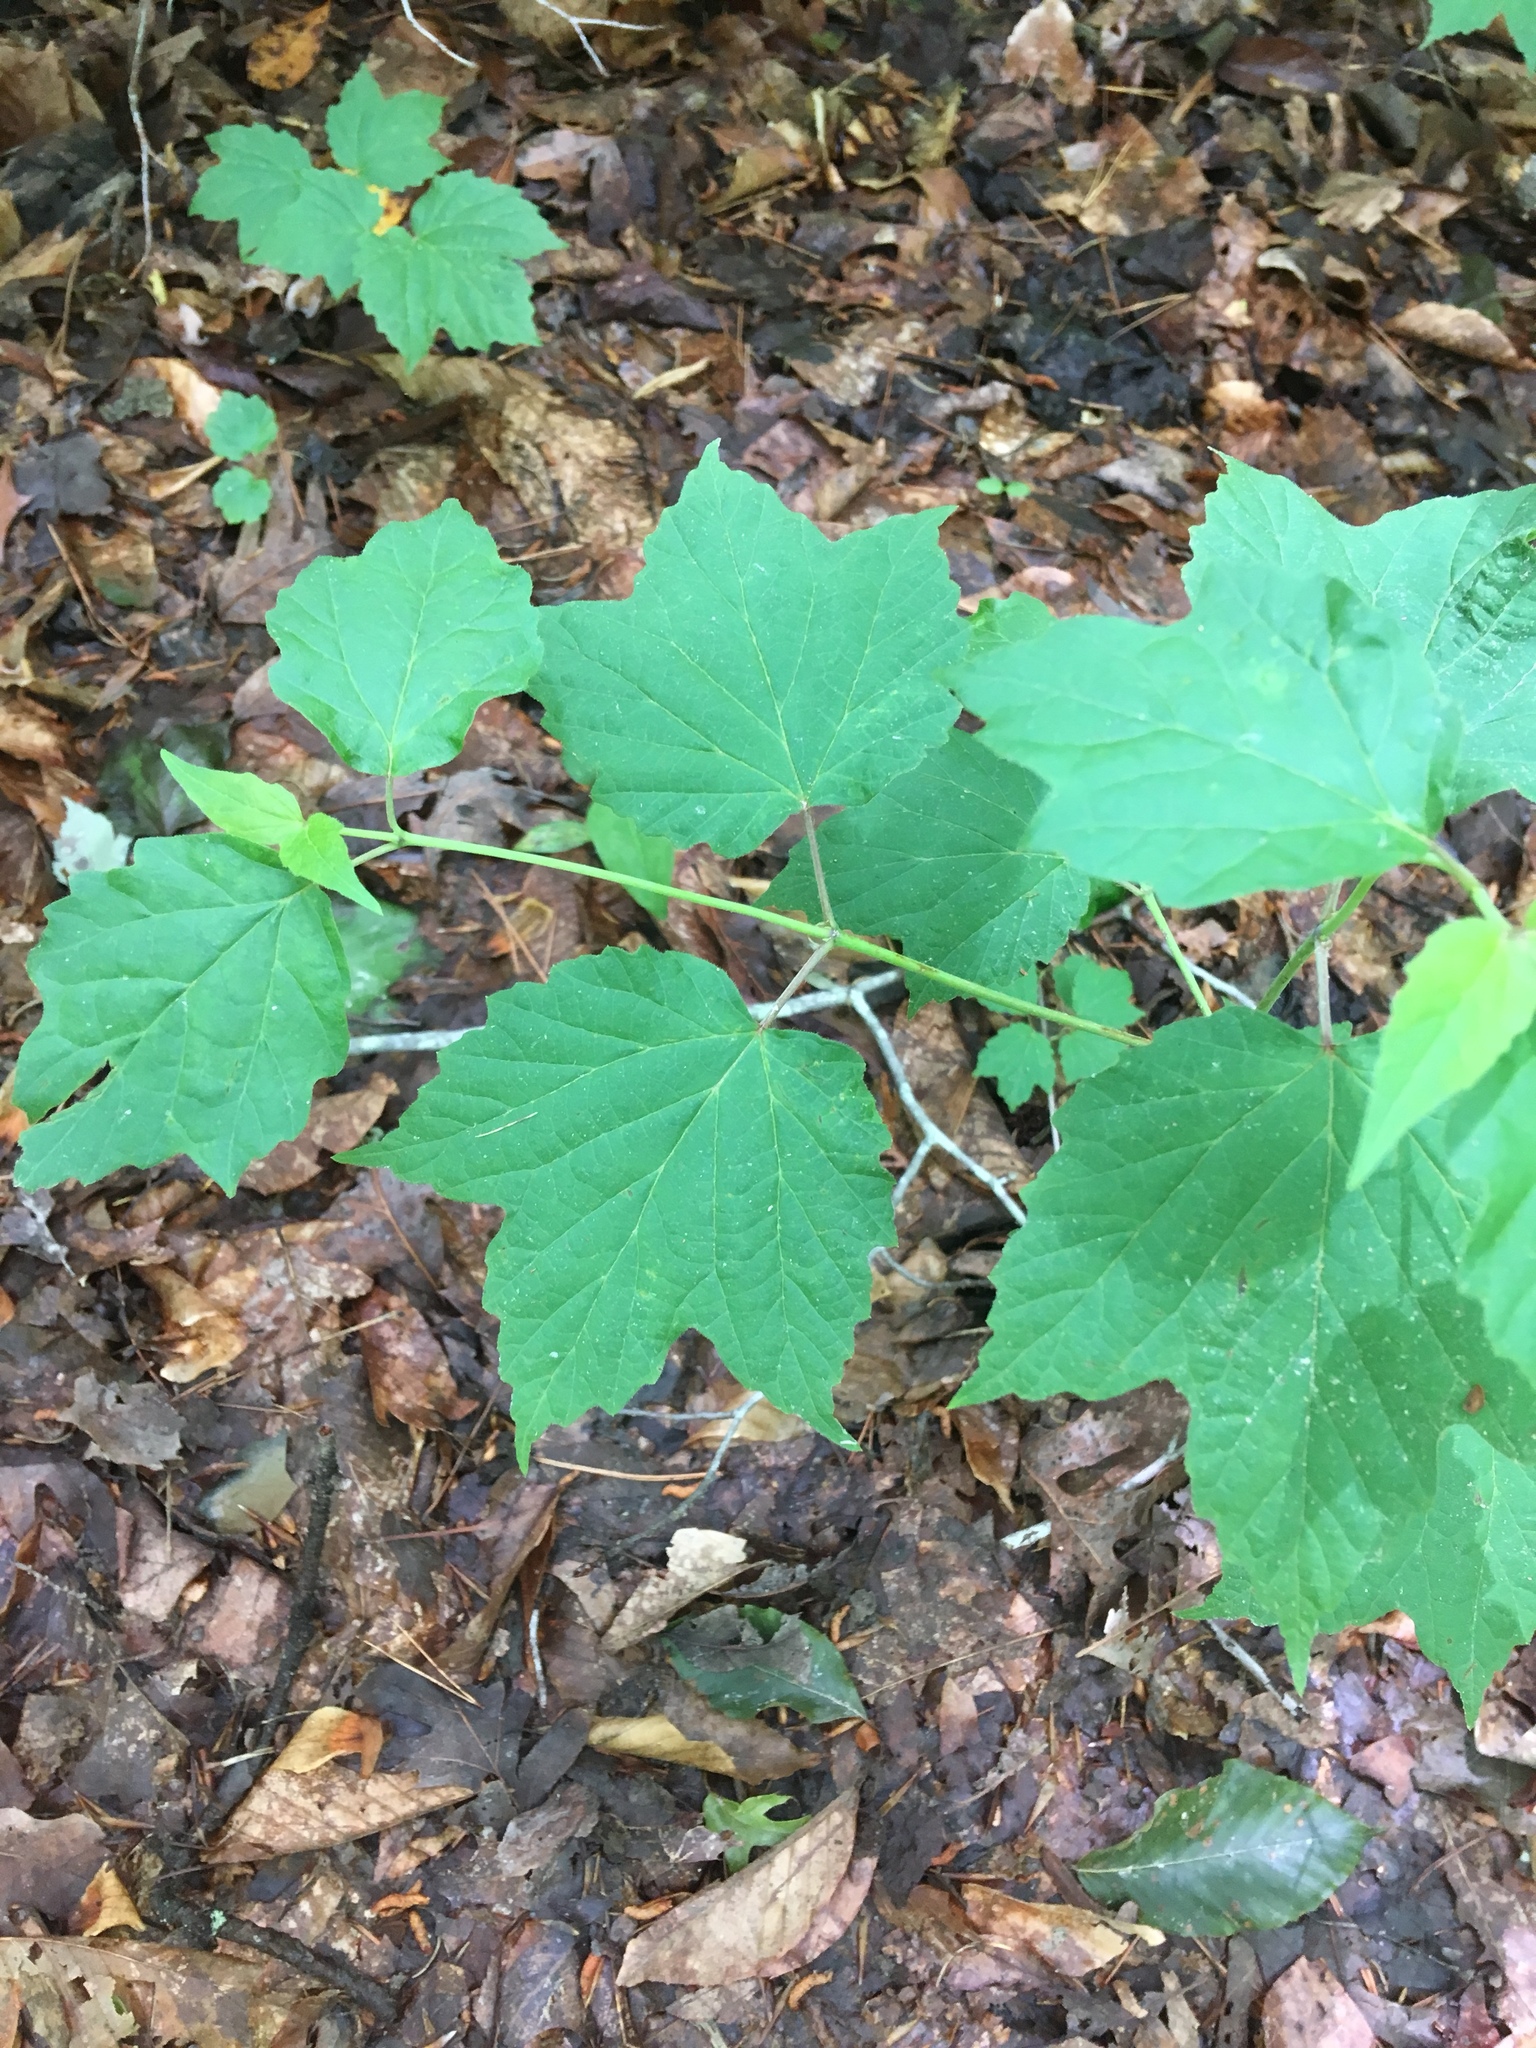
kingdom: Plantae
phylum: Tracheophyta
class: Magnoliopsida
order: Dipsacales
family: Viburnaceae
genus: Viburnum
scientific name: Viburnum acerifolium
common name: Dockmackie
